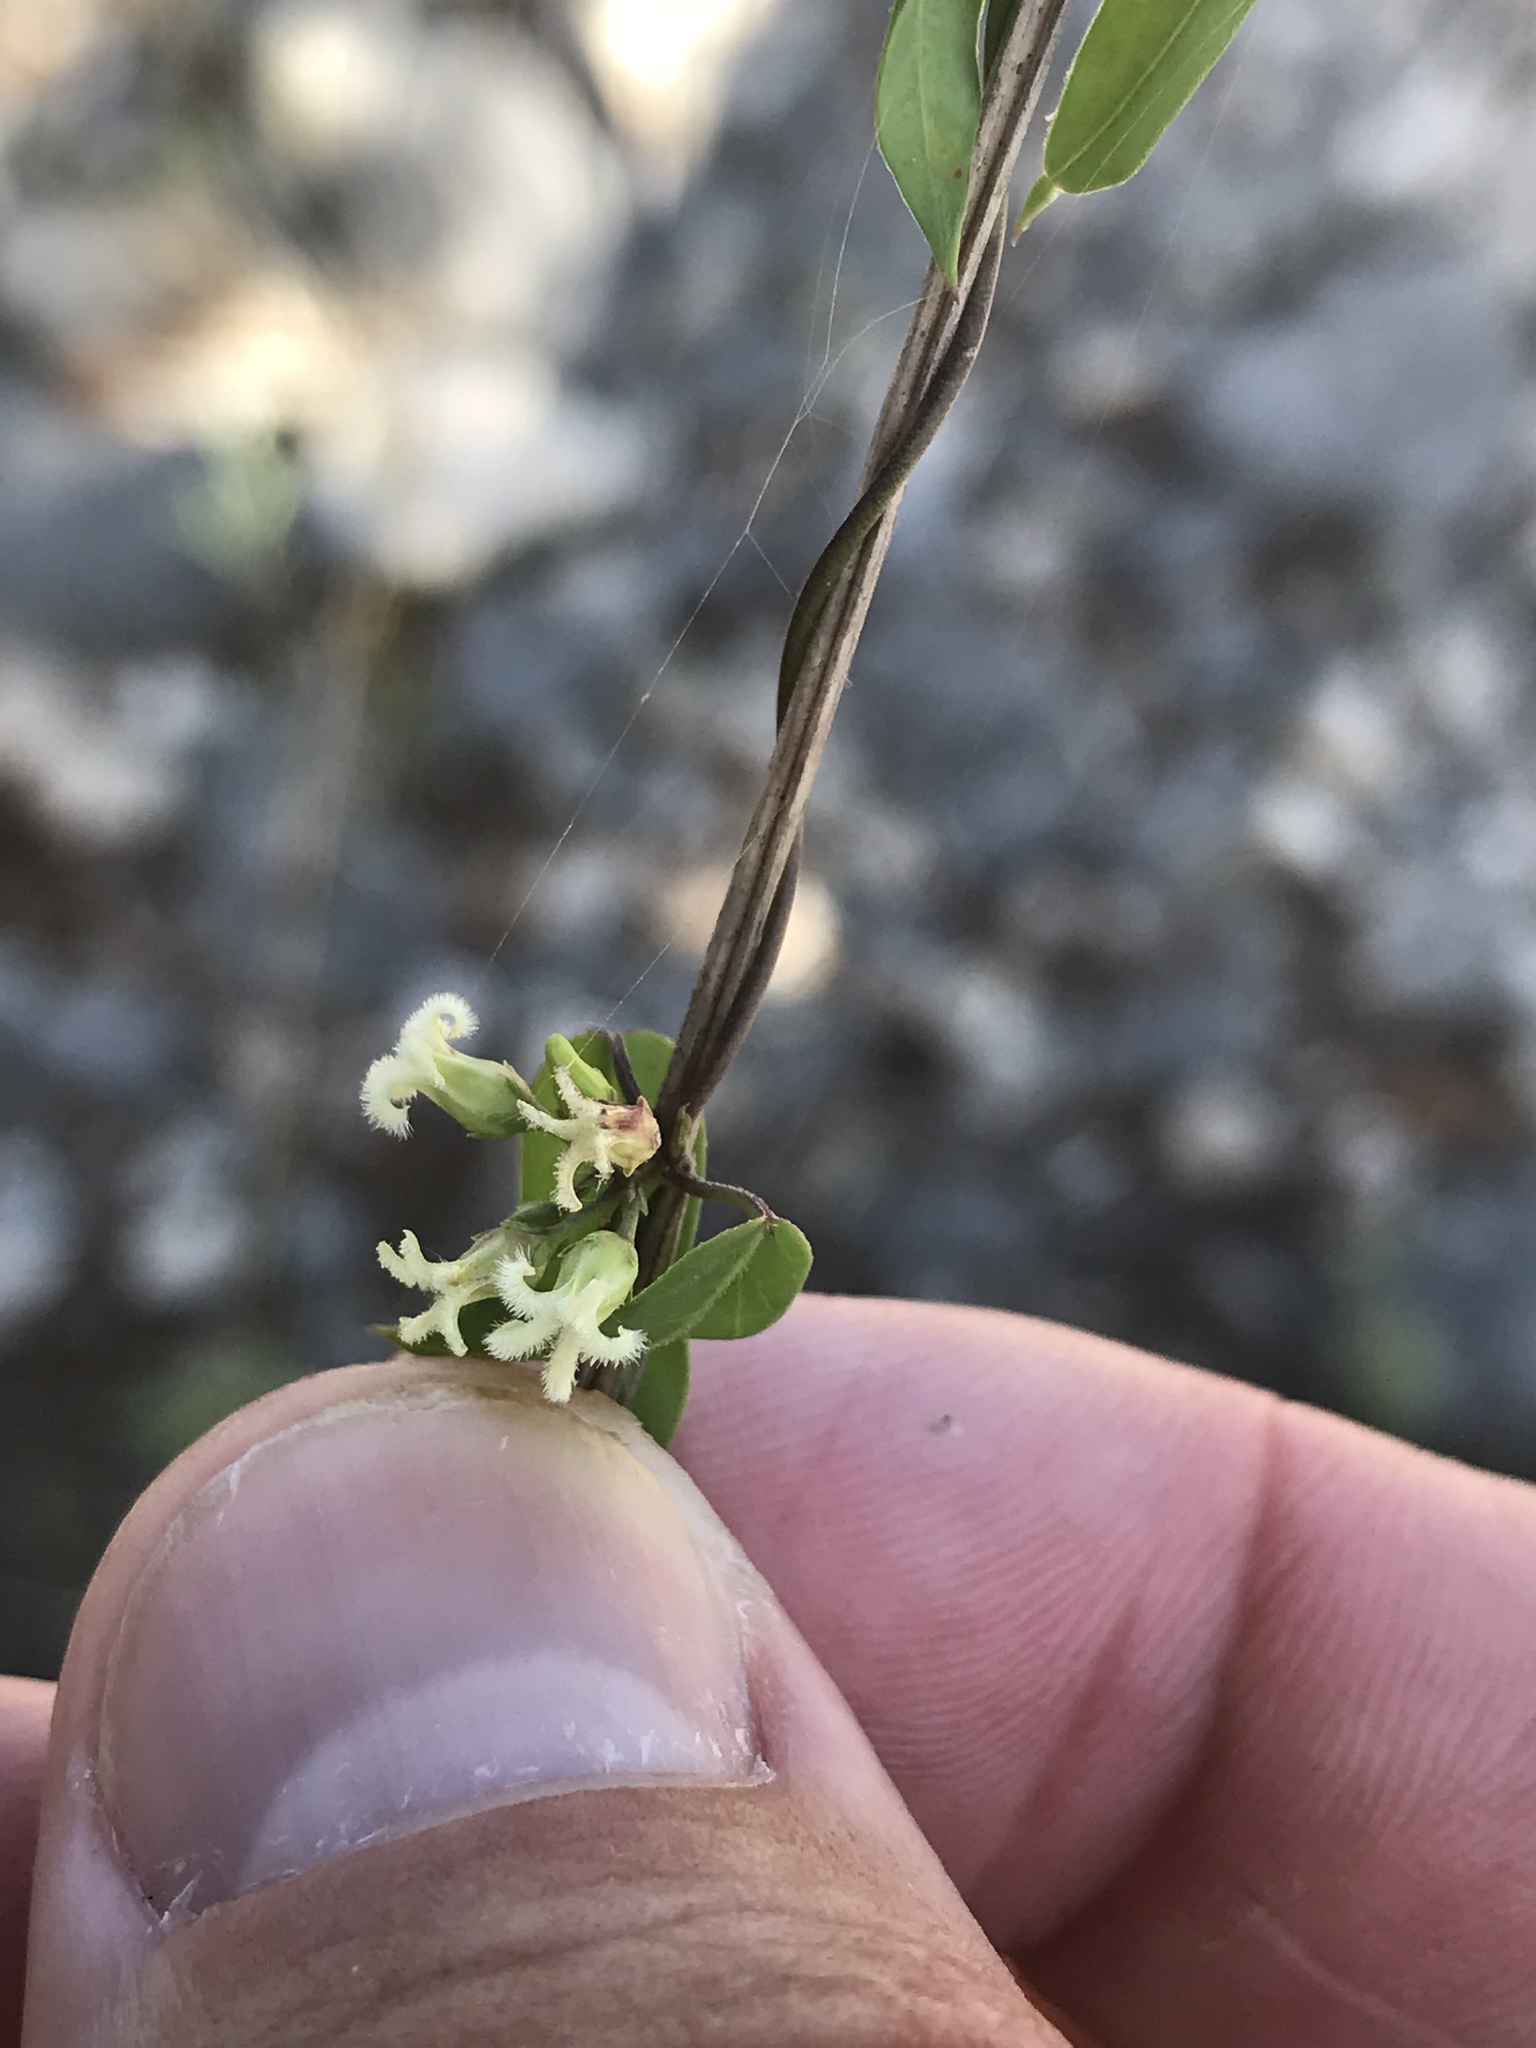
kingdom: Plantae
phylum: Tracheophyta
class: Magnoliopsida
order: Gentianales
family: Apocynaceae
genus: Metastelma
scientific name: Metastelma barbigerum
